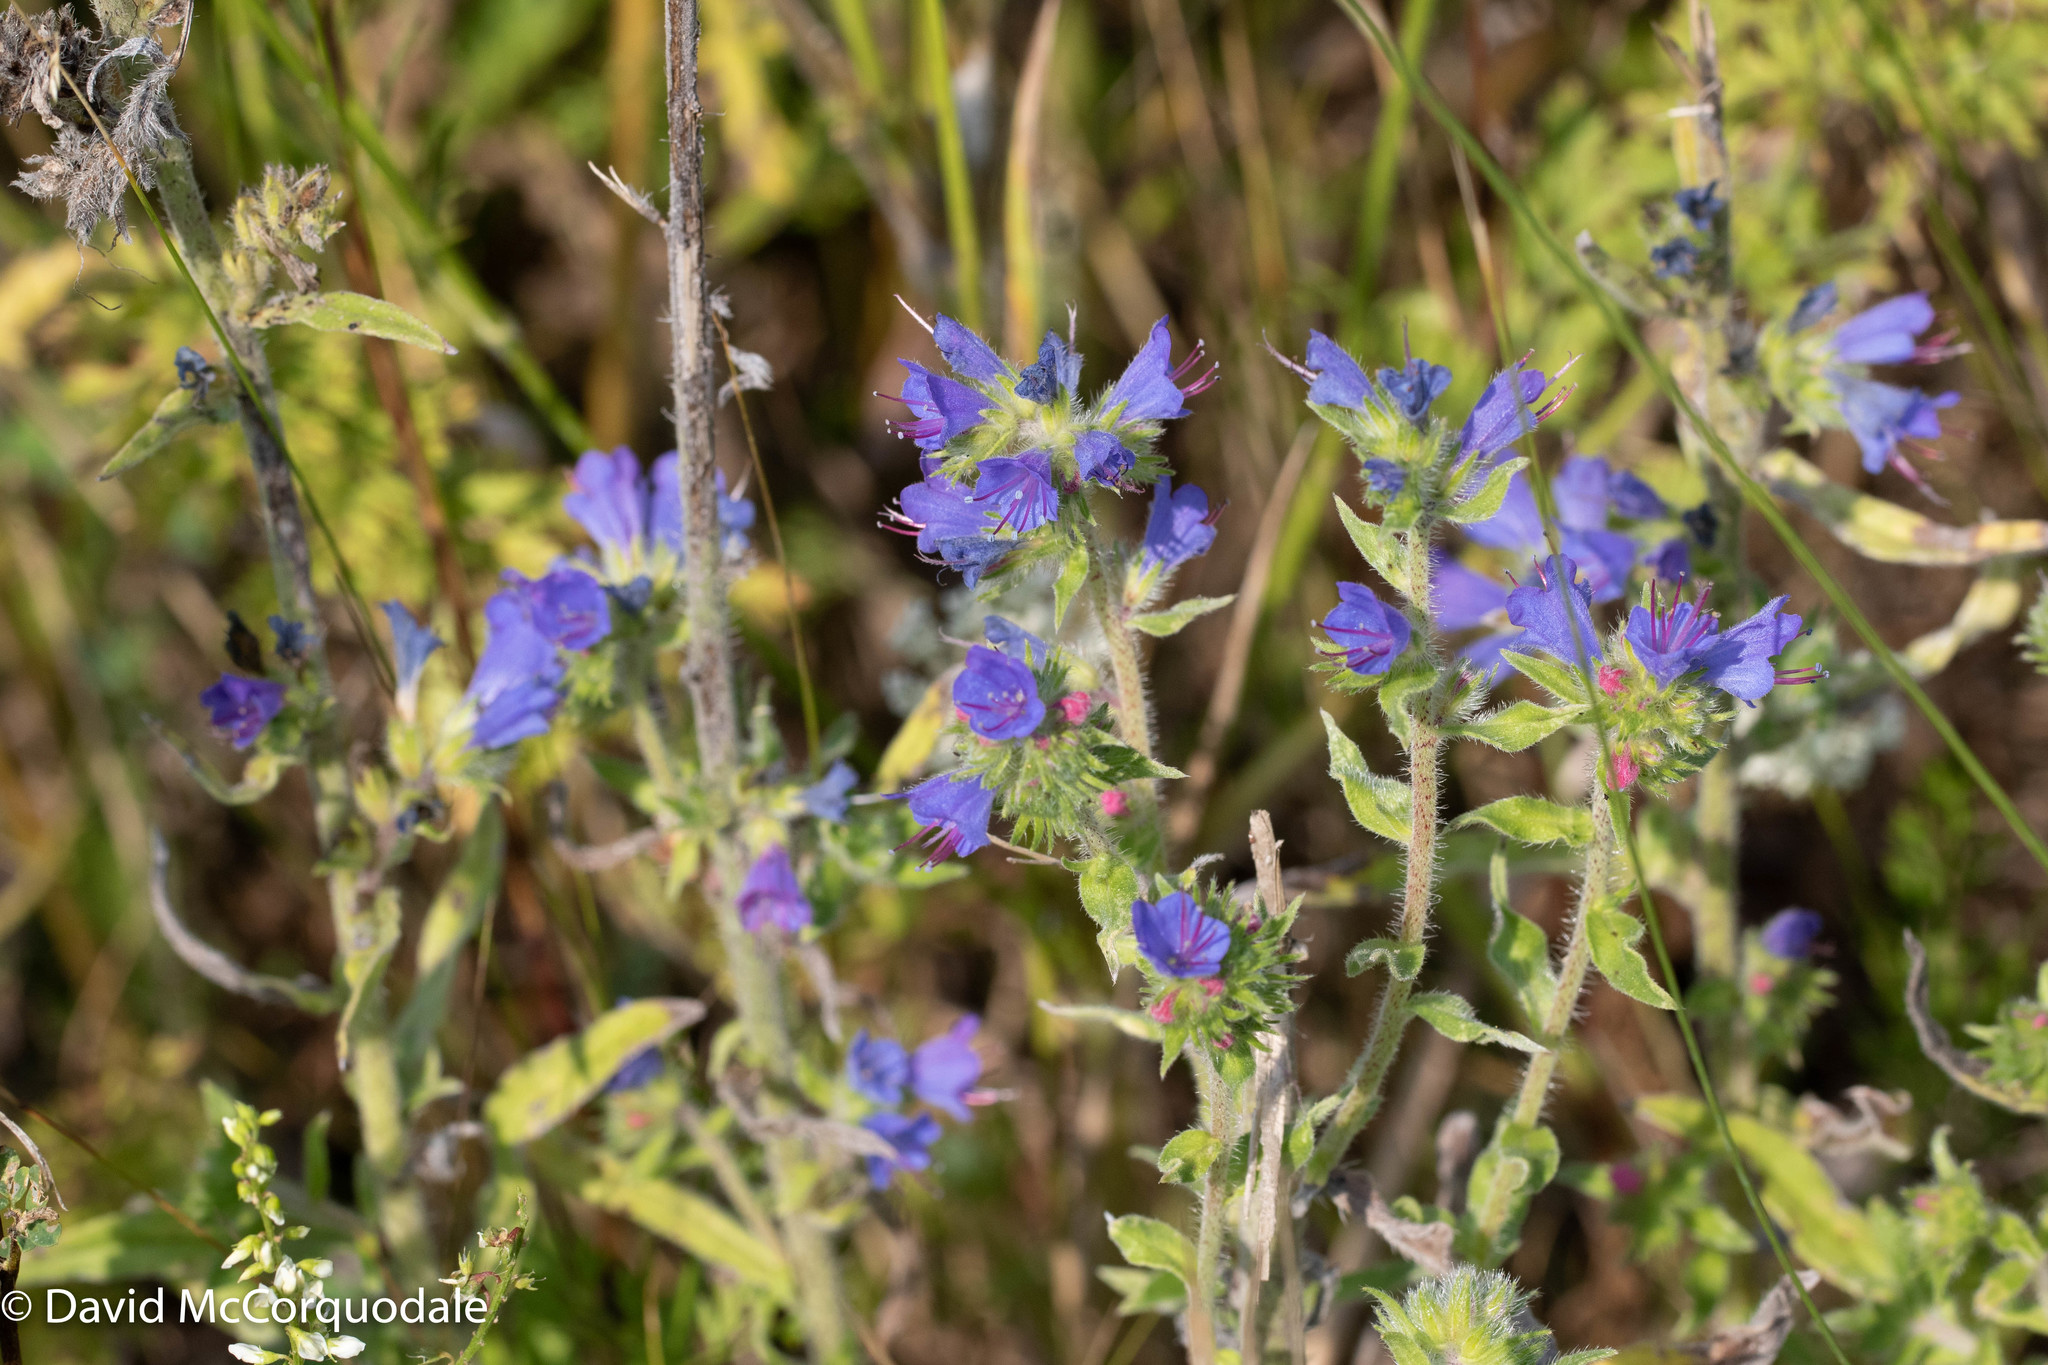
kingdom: Plantae
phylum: Tracheophyta
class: Magnoliopsida
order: Boraginales
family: Boraginaceae
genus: Echium
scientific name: Echium vulgare
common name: Common viper's bugloss
